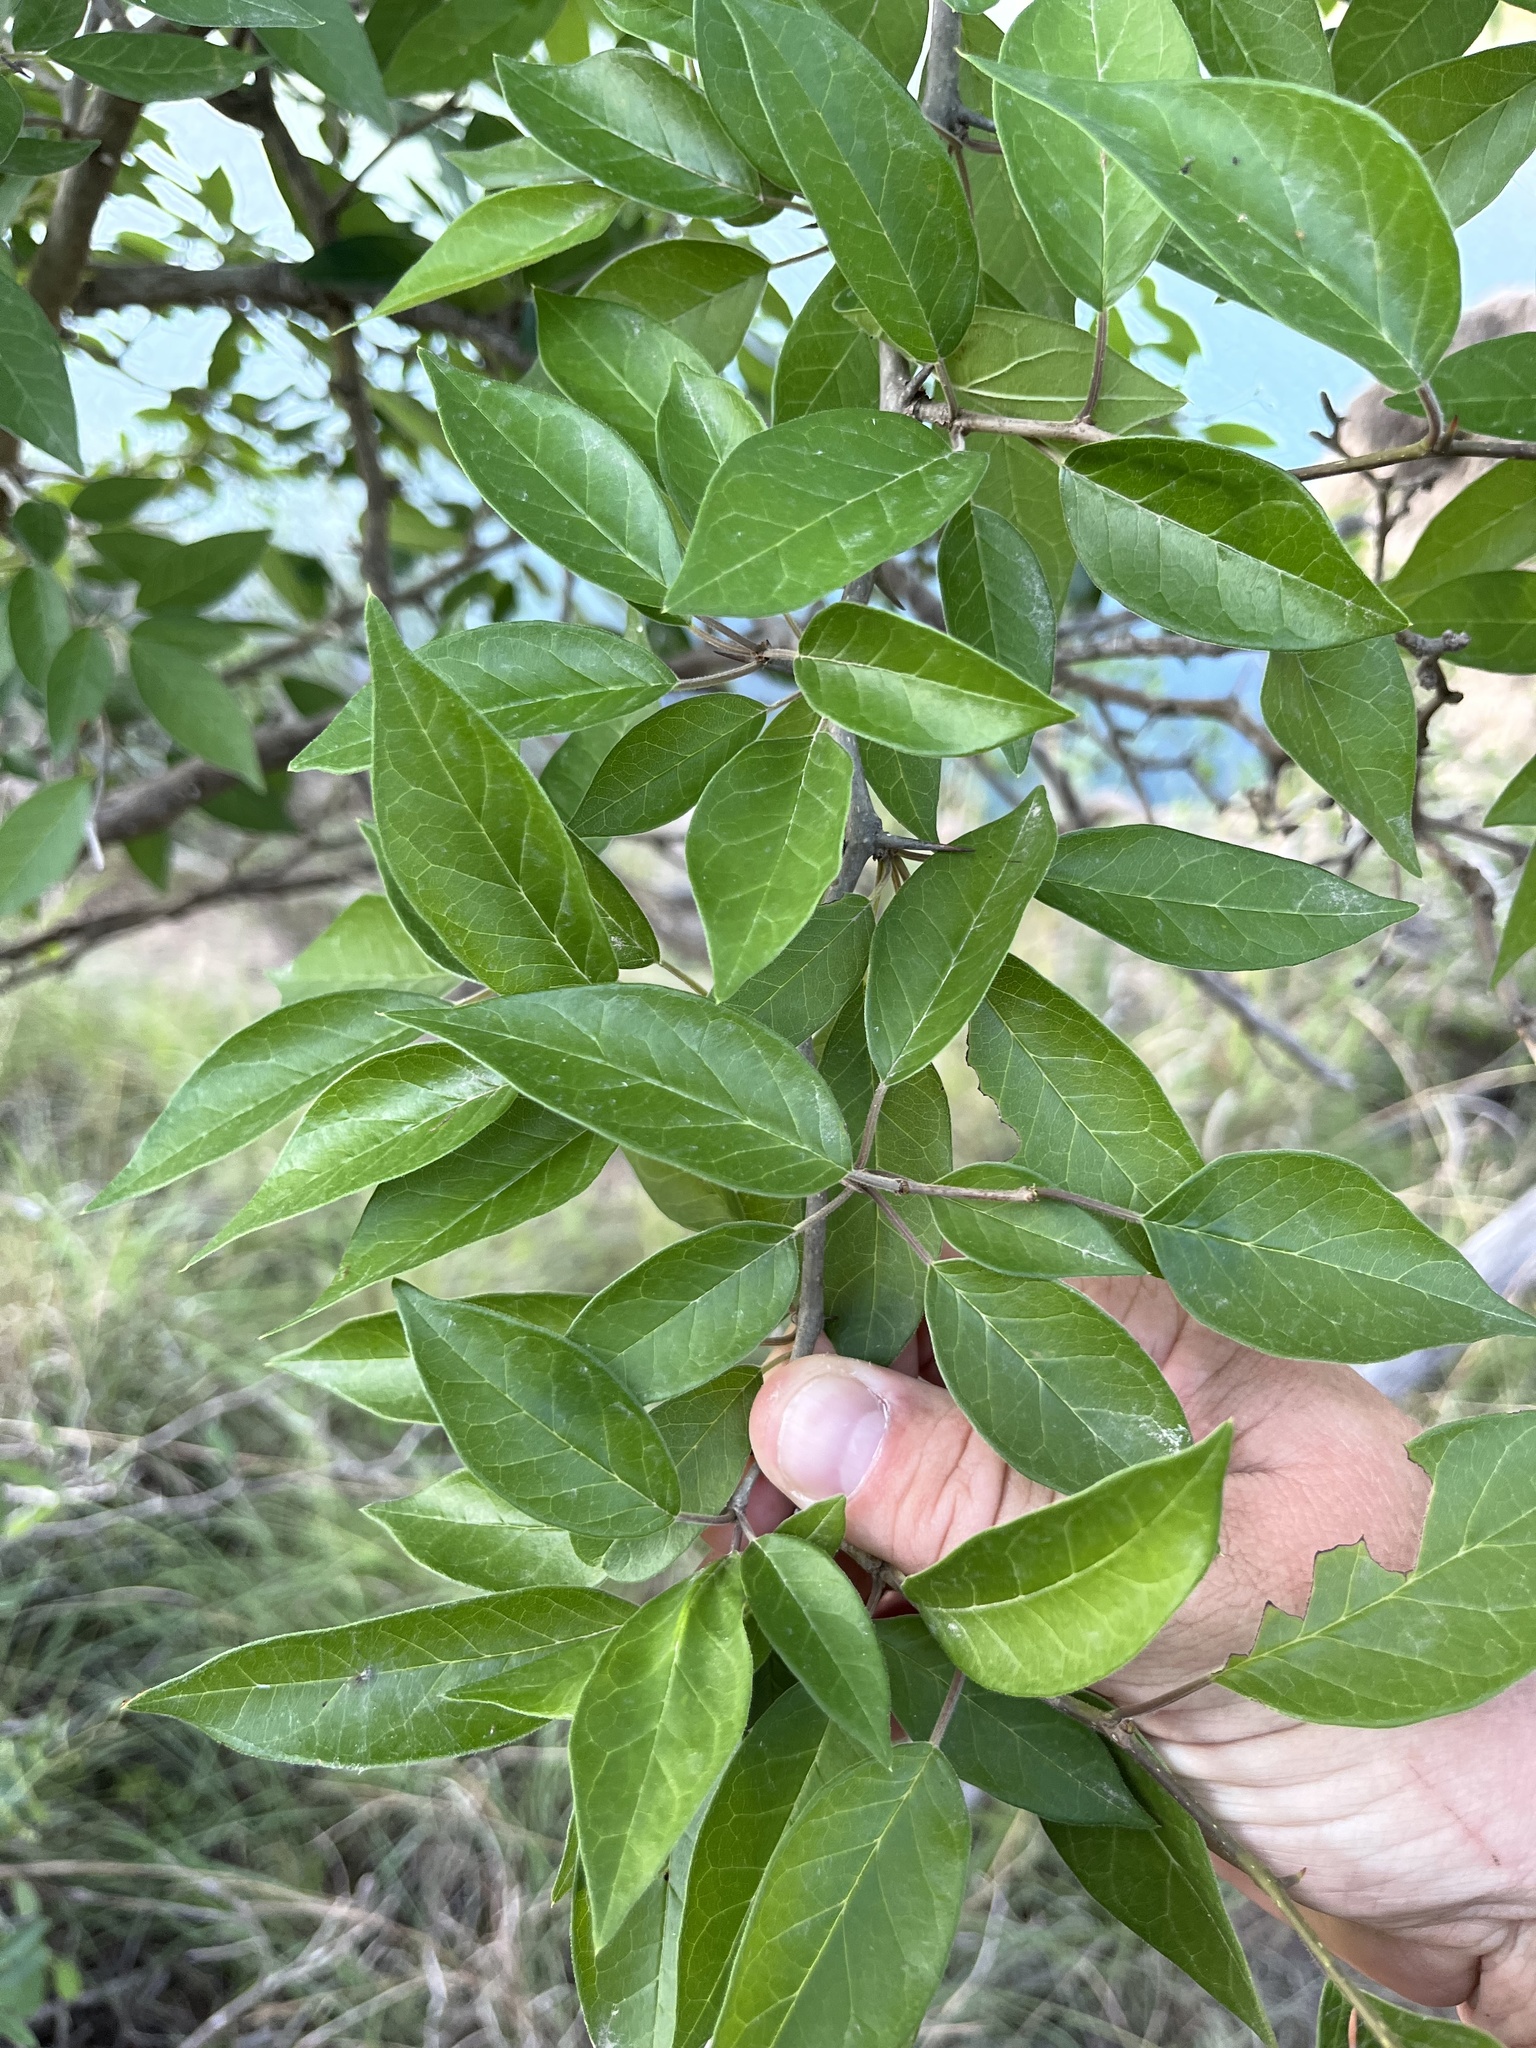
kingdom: Plantae
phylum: Tracheophyta
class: Magnoliopsida
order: Rosales
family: Moraceae
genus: Maclura
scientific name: Maclura pomifera
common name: Osage-orange
